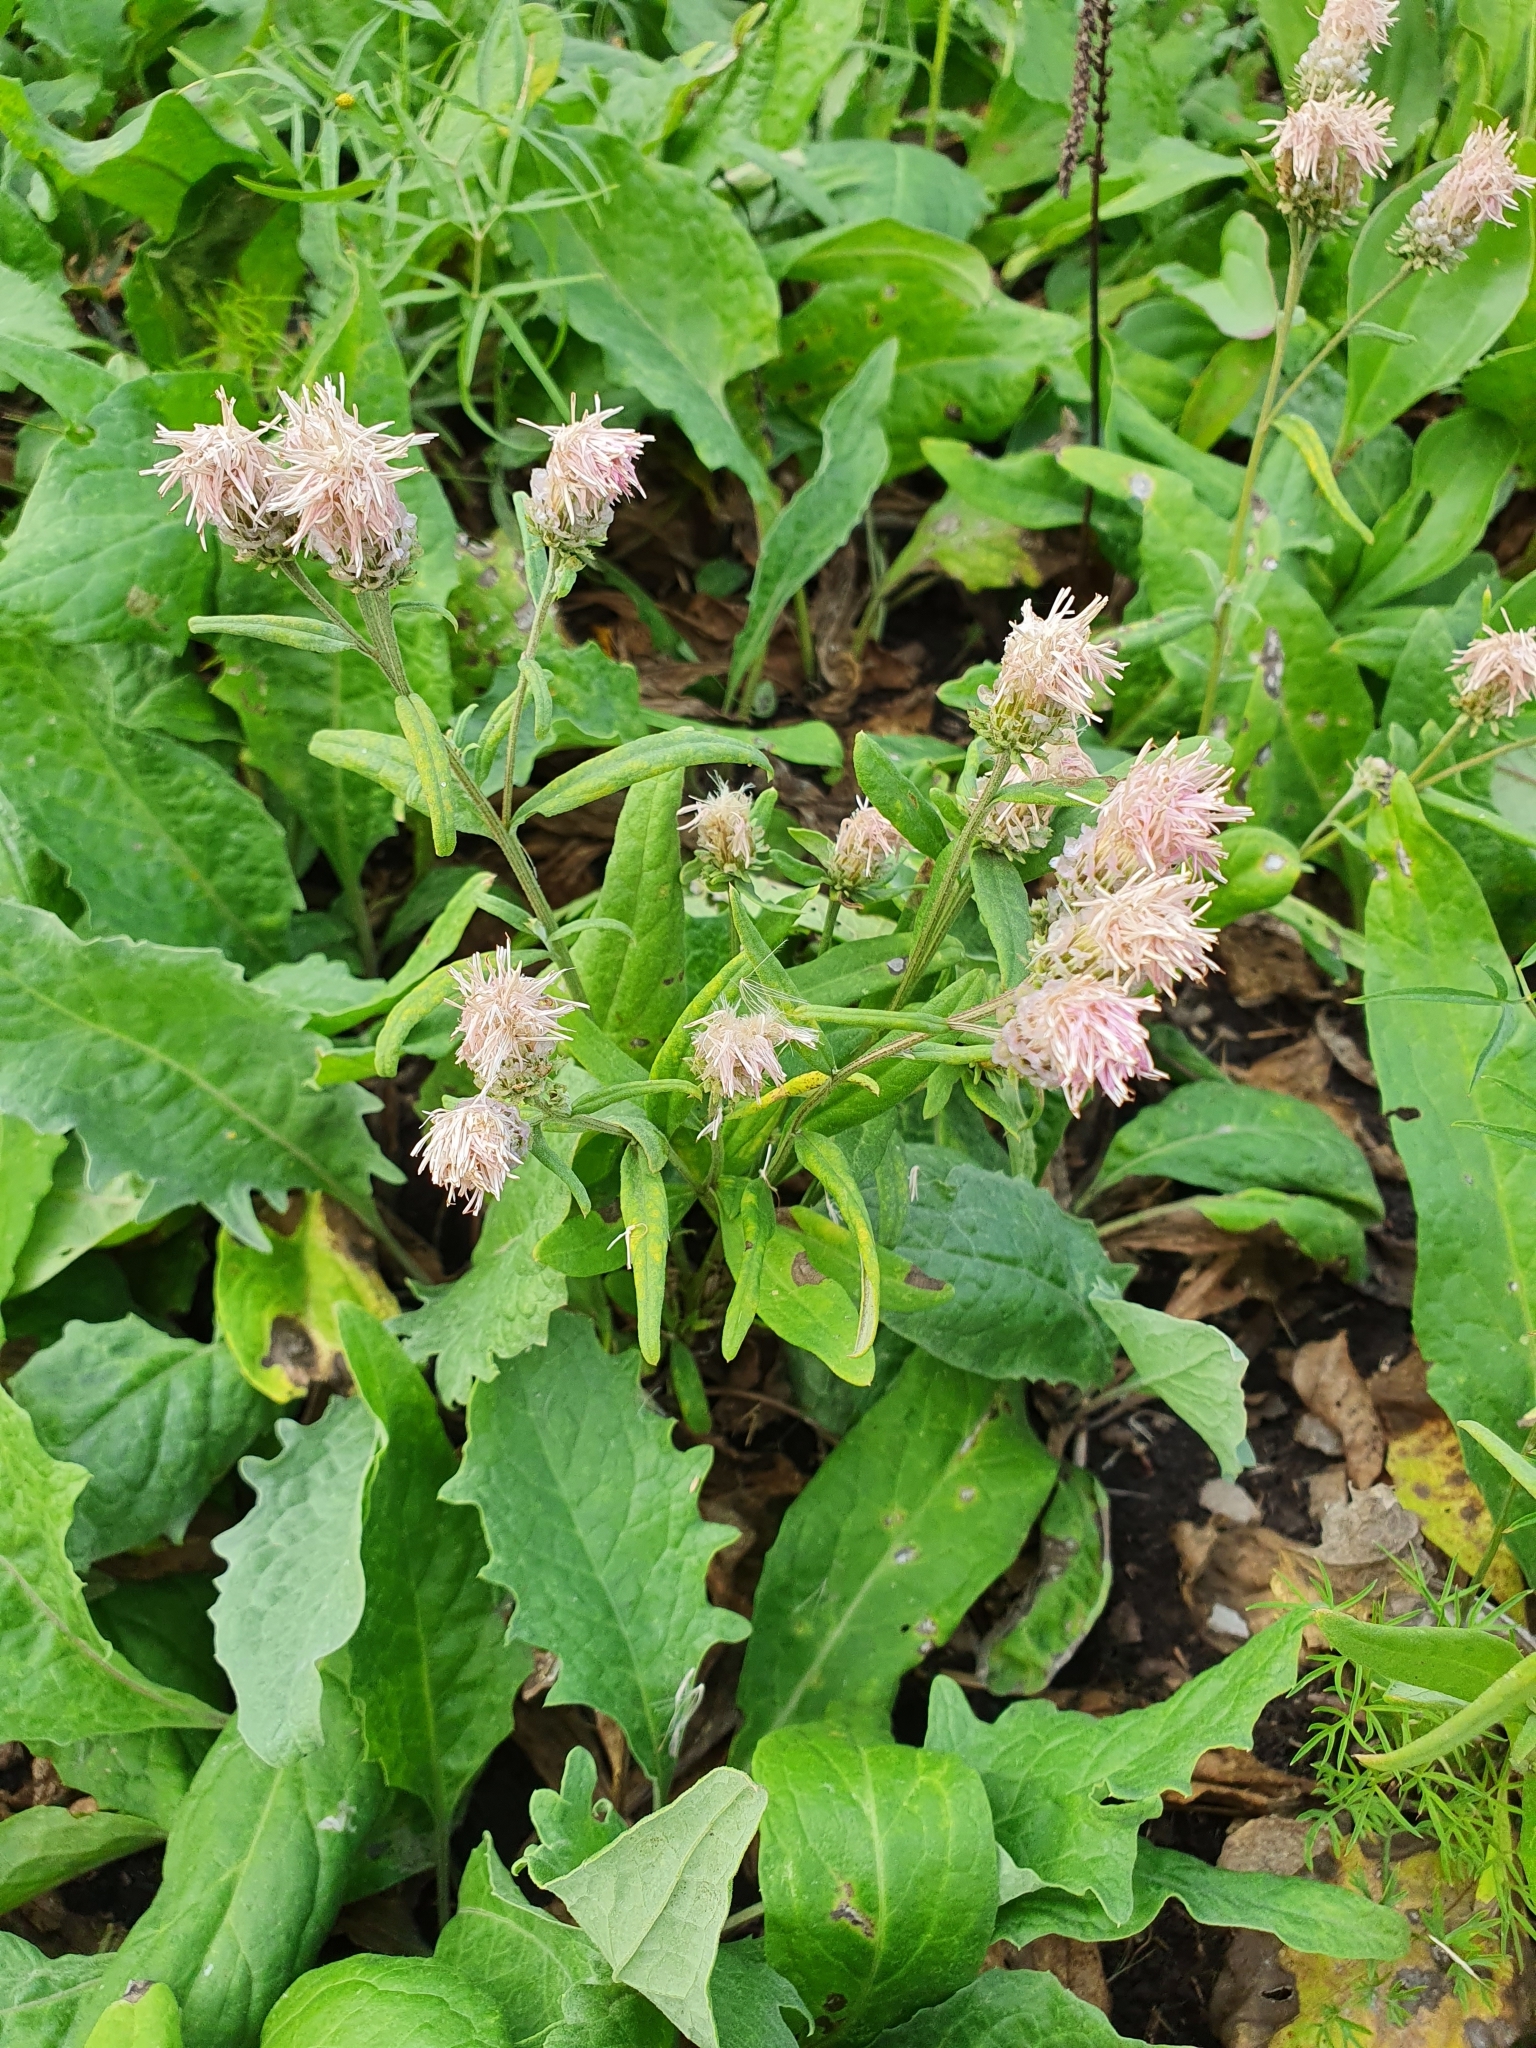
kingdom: Plantae
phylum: Tracheophyta
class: Magnoliopsida
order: Asterales
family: Asteraceae
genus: Saussurea
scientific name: Saussurea amara
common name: Alberta sawwort
